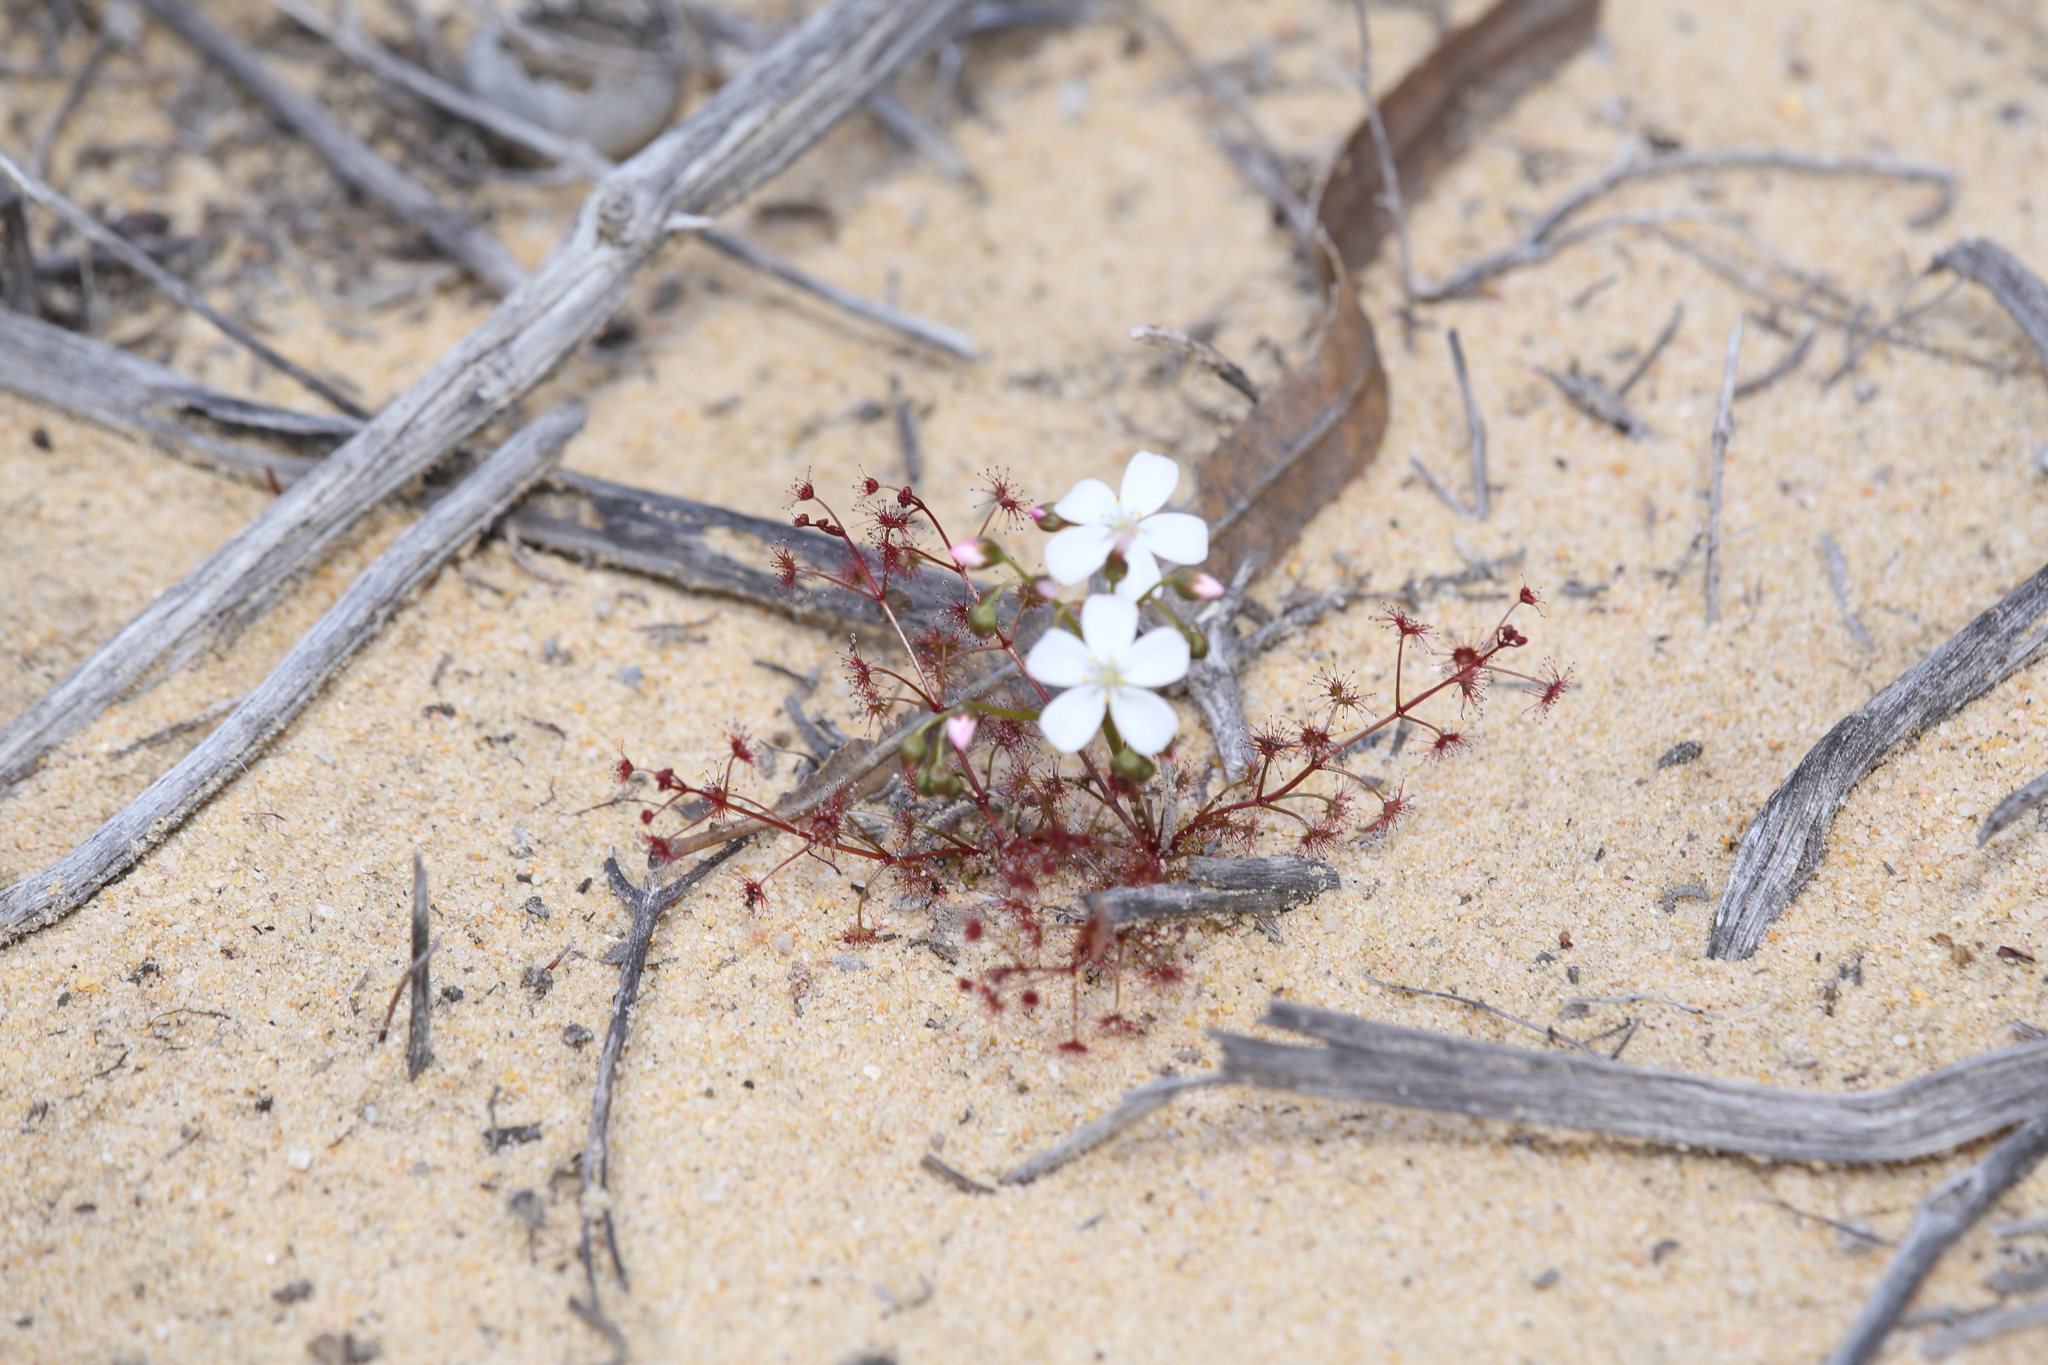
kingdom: Plantae
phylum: Tracheophyta
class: Magnoliopsida
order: Caryophyllales
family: Droseraceae
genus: Drosera
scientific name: Drosera stolonifera
